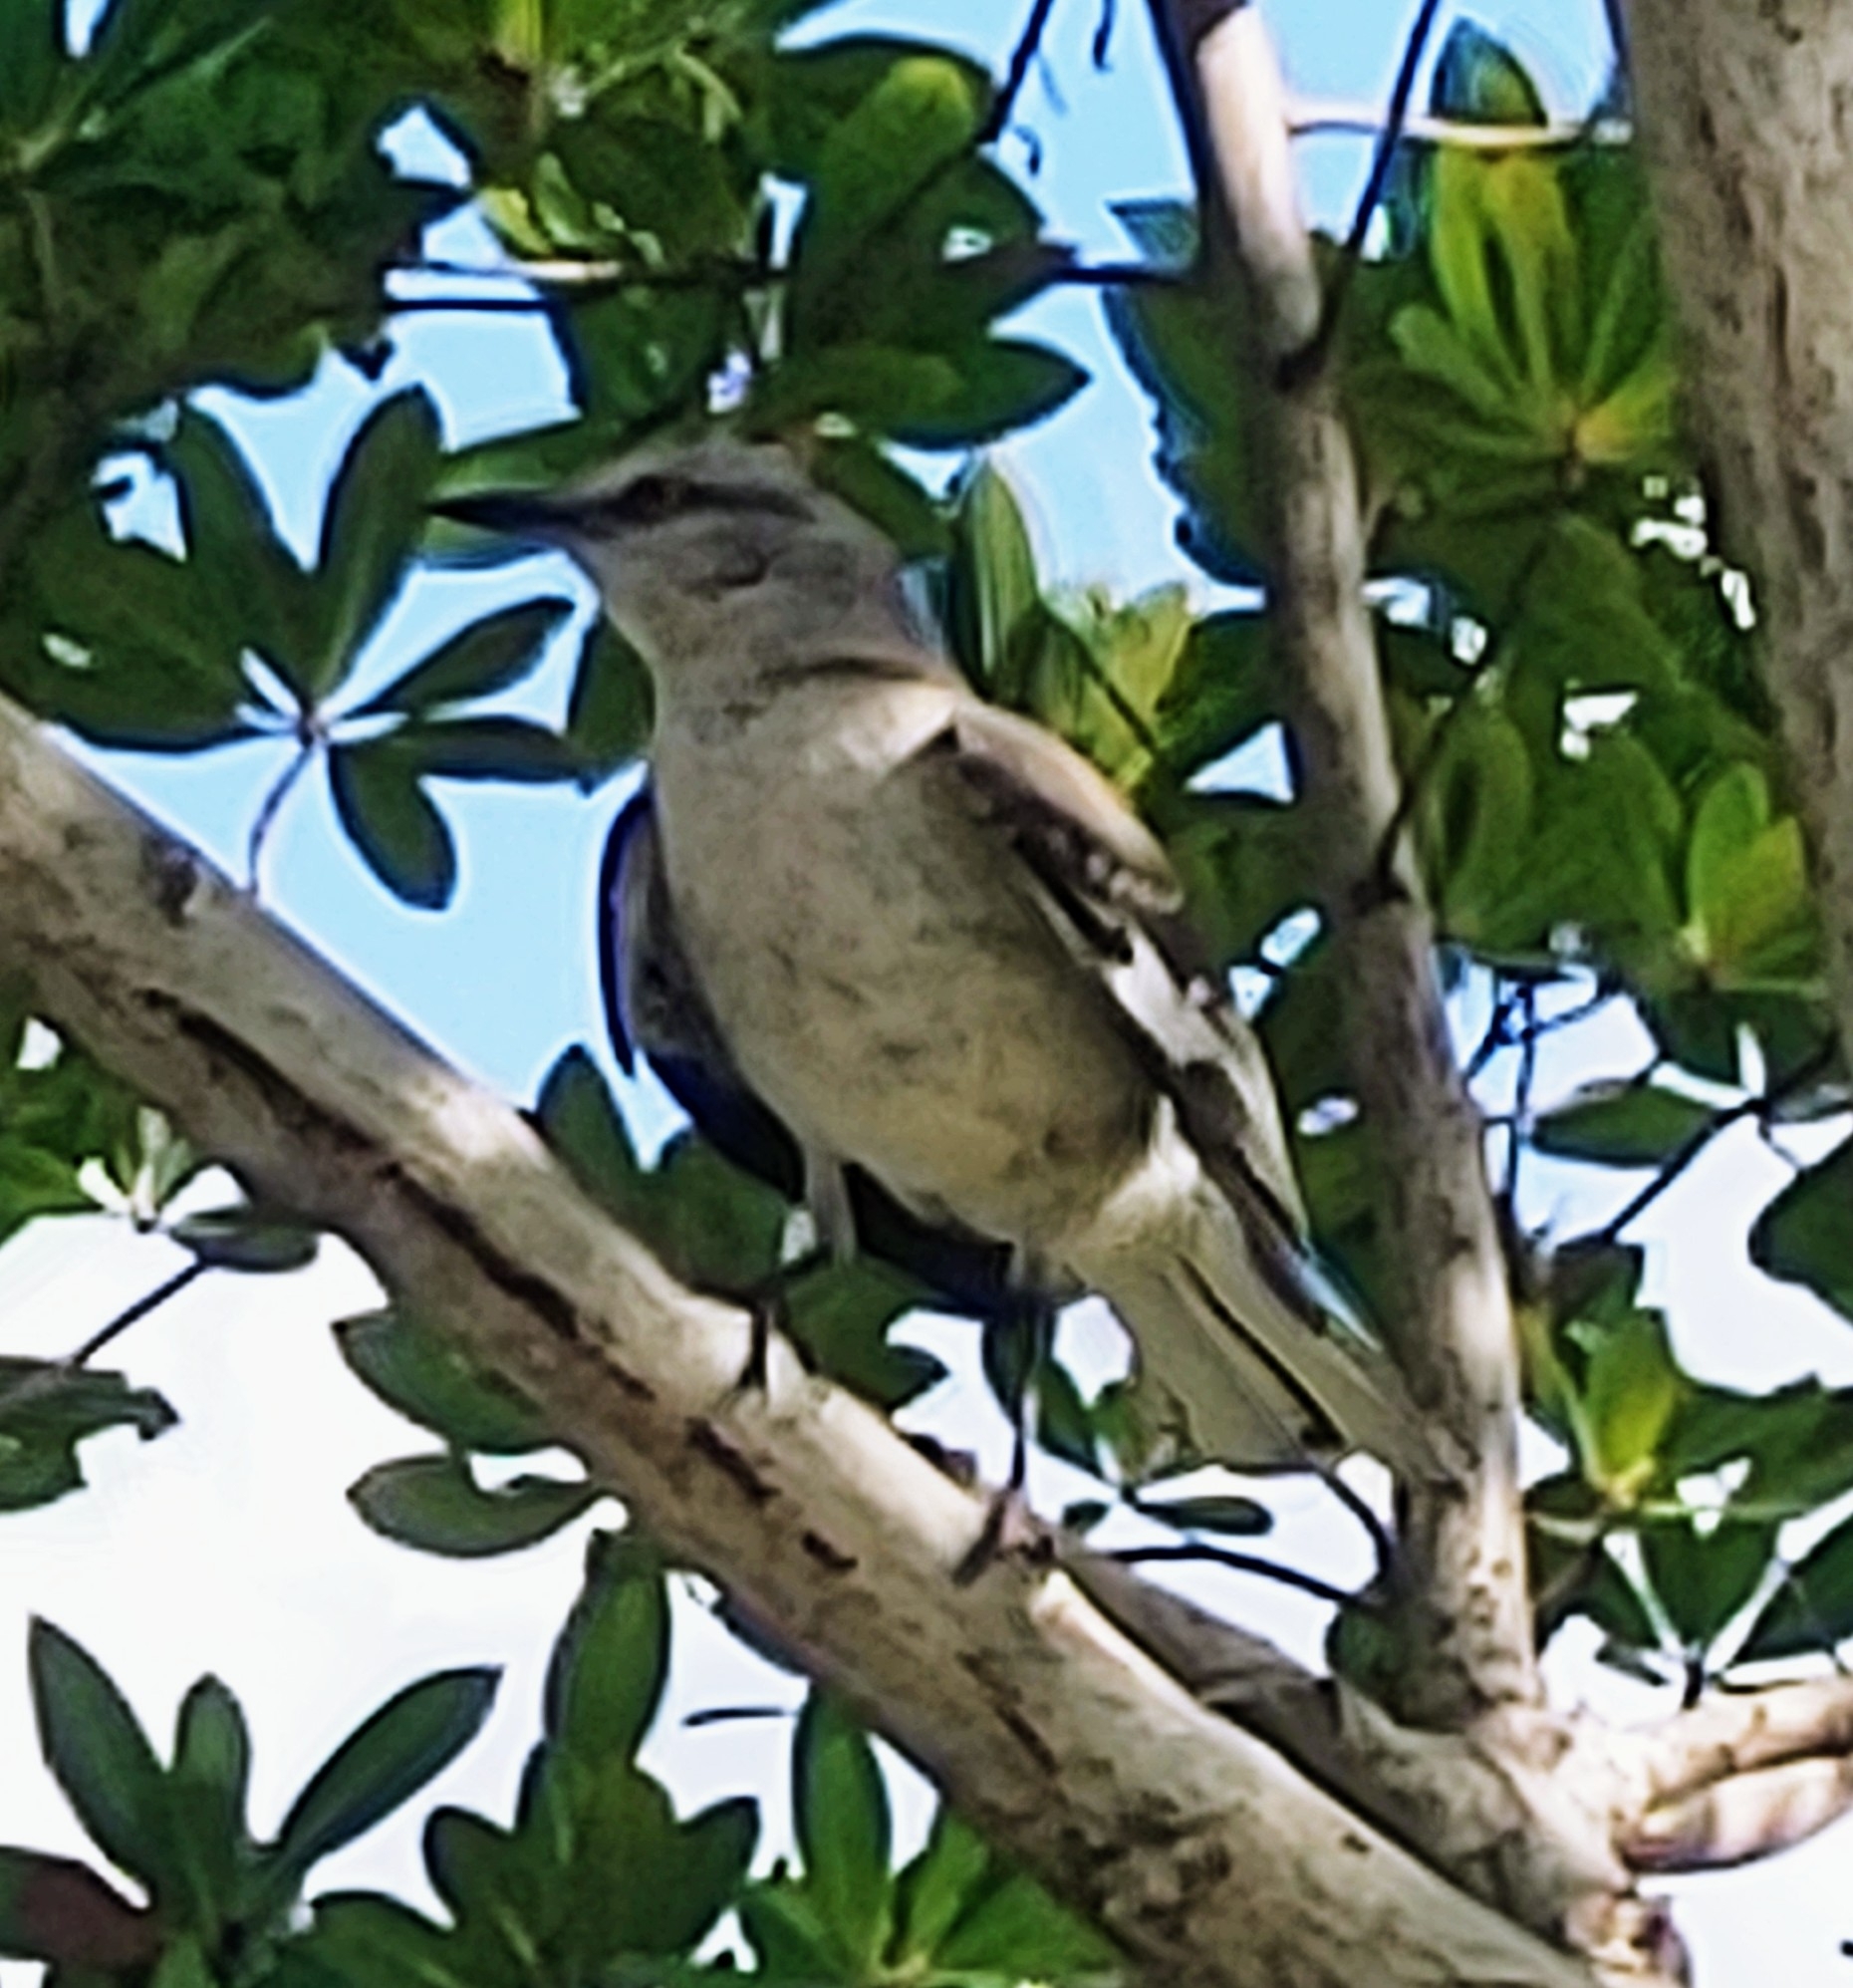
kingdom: Animalia
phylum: Chordata
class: Aves
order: Passeriformes
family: Mimidae
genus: Mimus
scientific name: Mimus polyglottos
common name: Northern mockingbird
